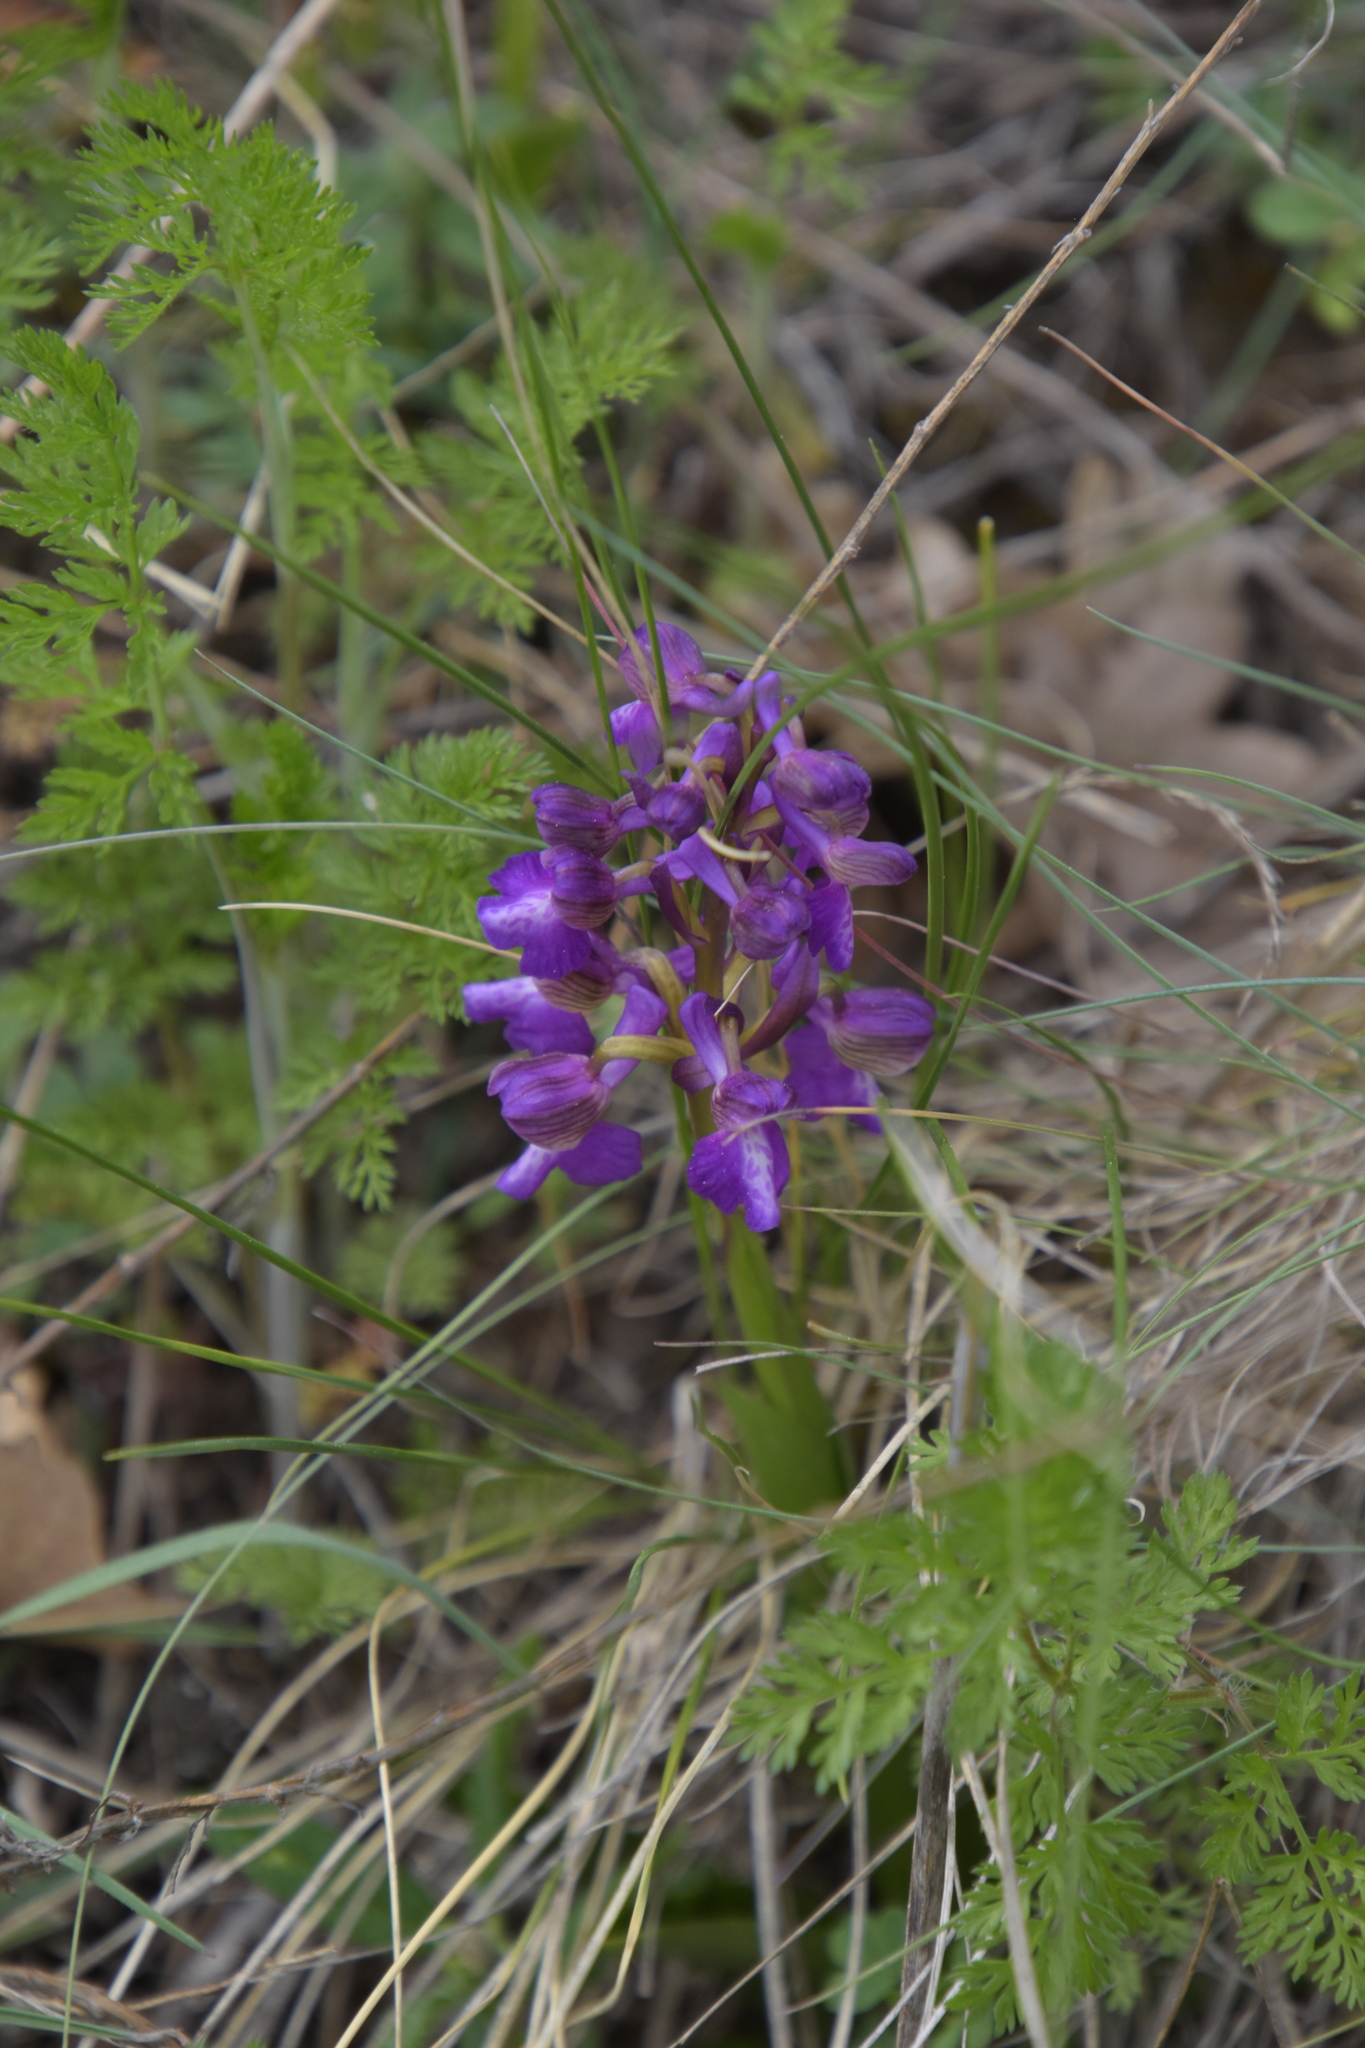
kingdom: Plantae
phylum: Tracheophyta
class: Liliopsida
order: Asparagales
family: Orchidaceae
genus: Anacamptis
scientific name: Anacamptis morio
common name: Green-winged orchid
